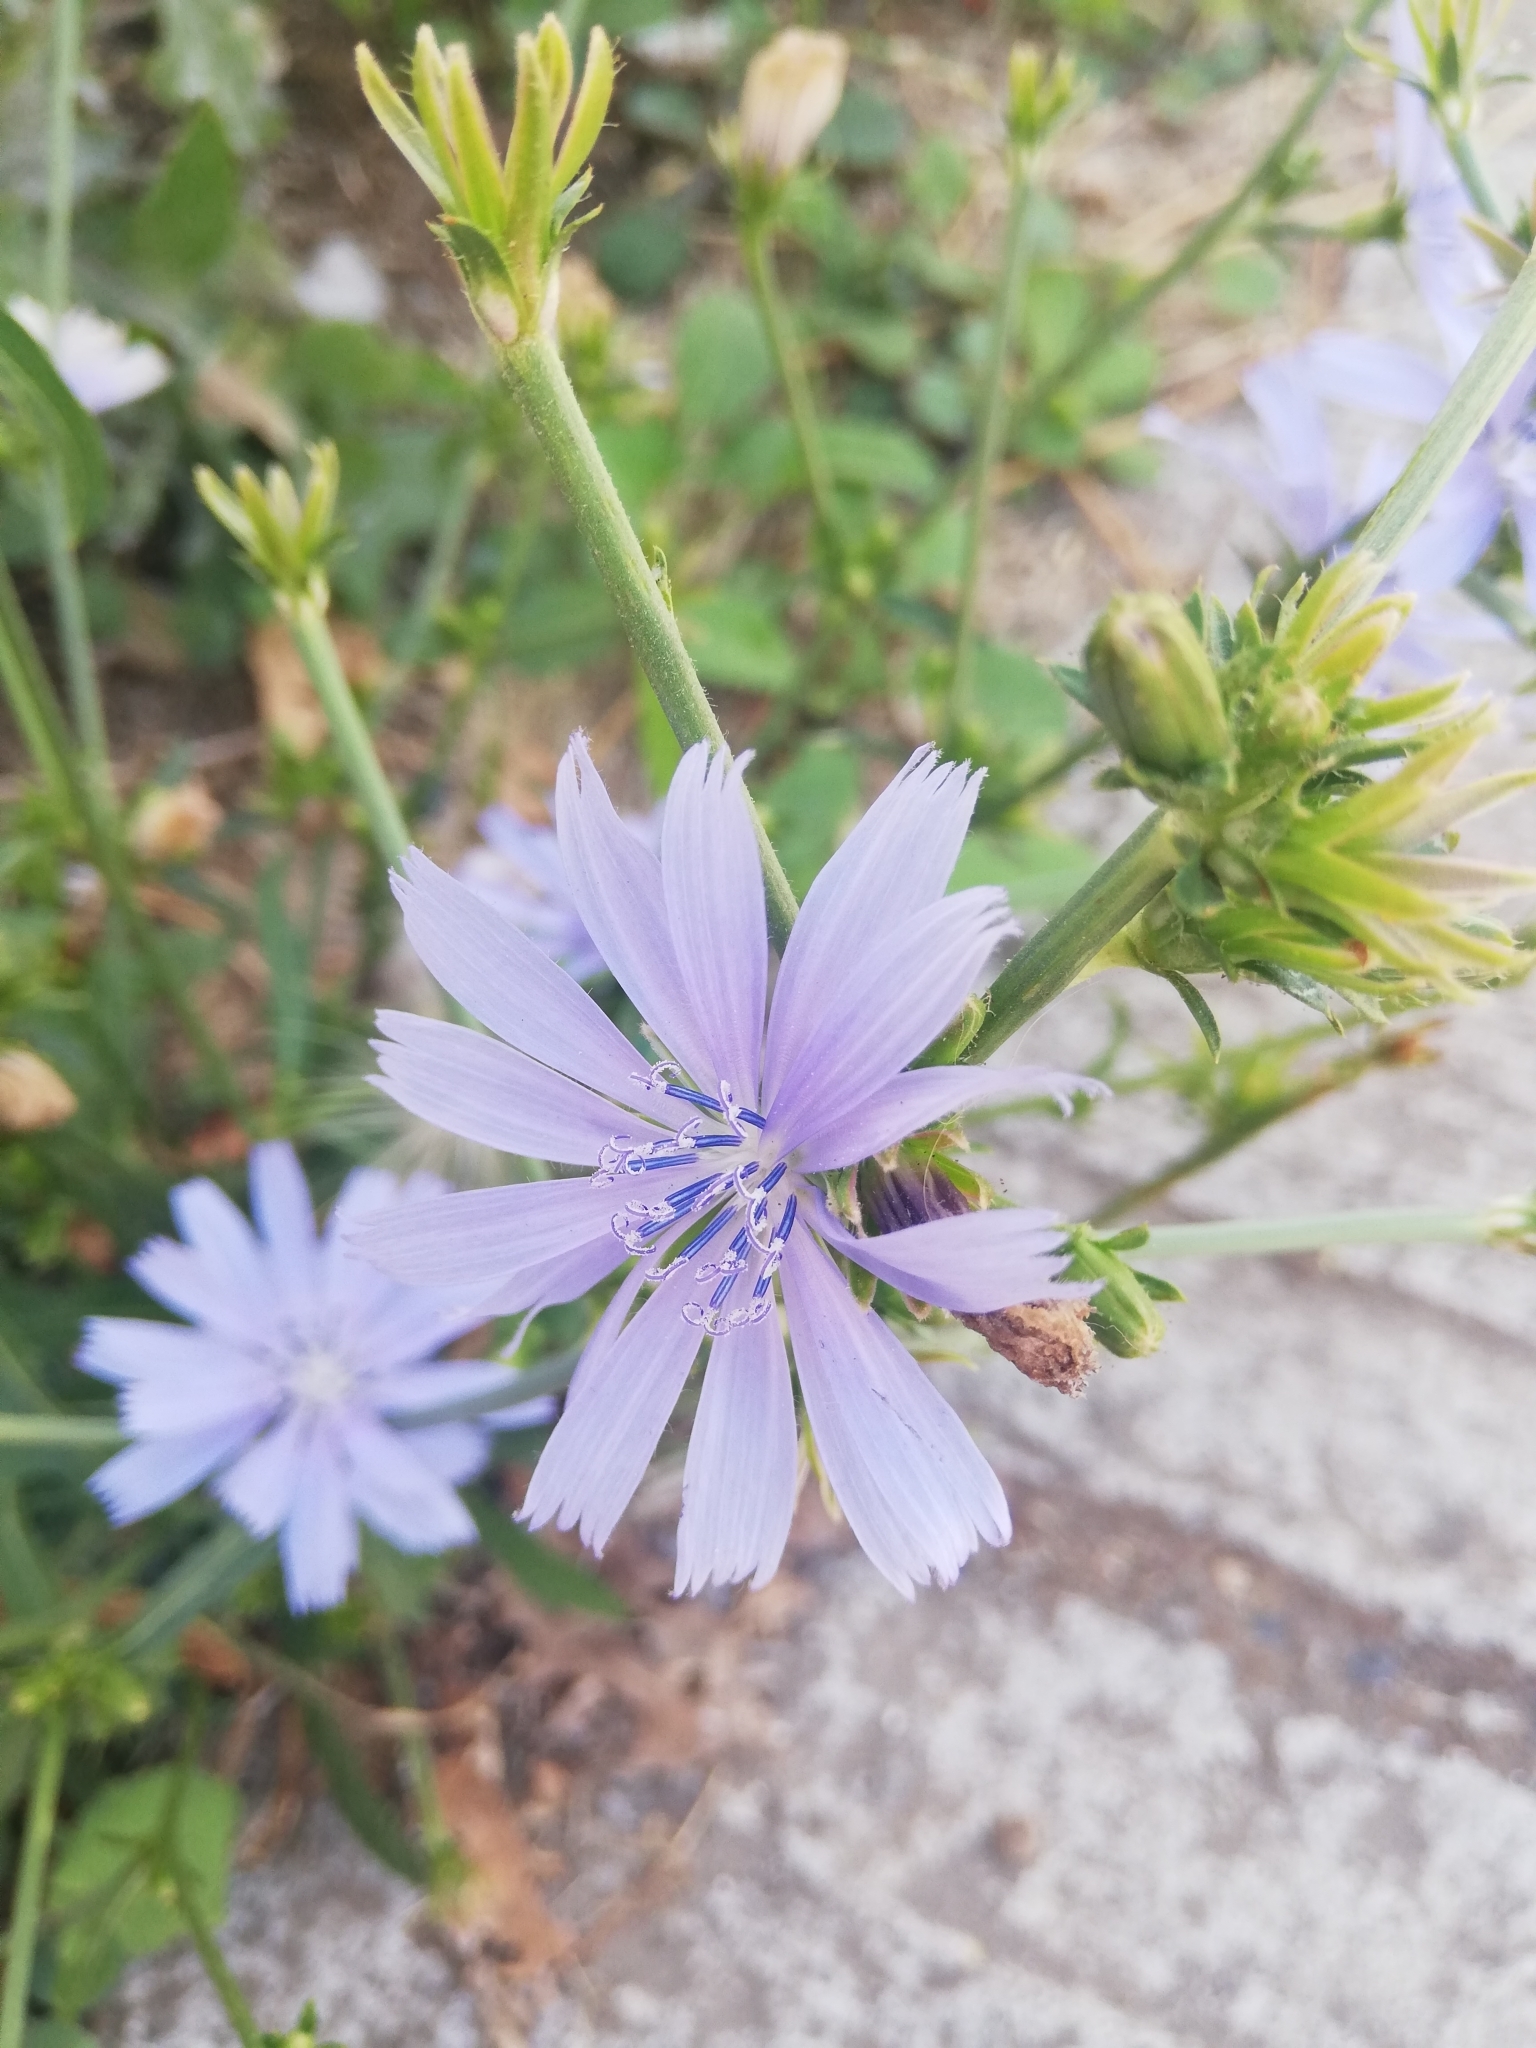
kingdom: Plantae
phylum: Tracheophyta
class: Magnoliopsida
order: Asterales
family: Asteraceae
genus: Cichorium
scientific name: Cichorium intybus
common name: Chicory
